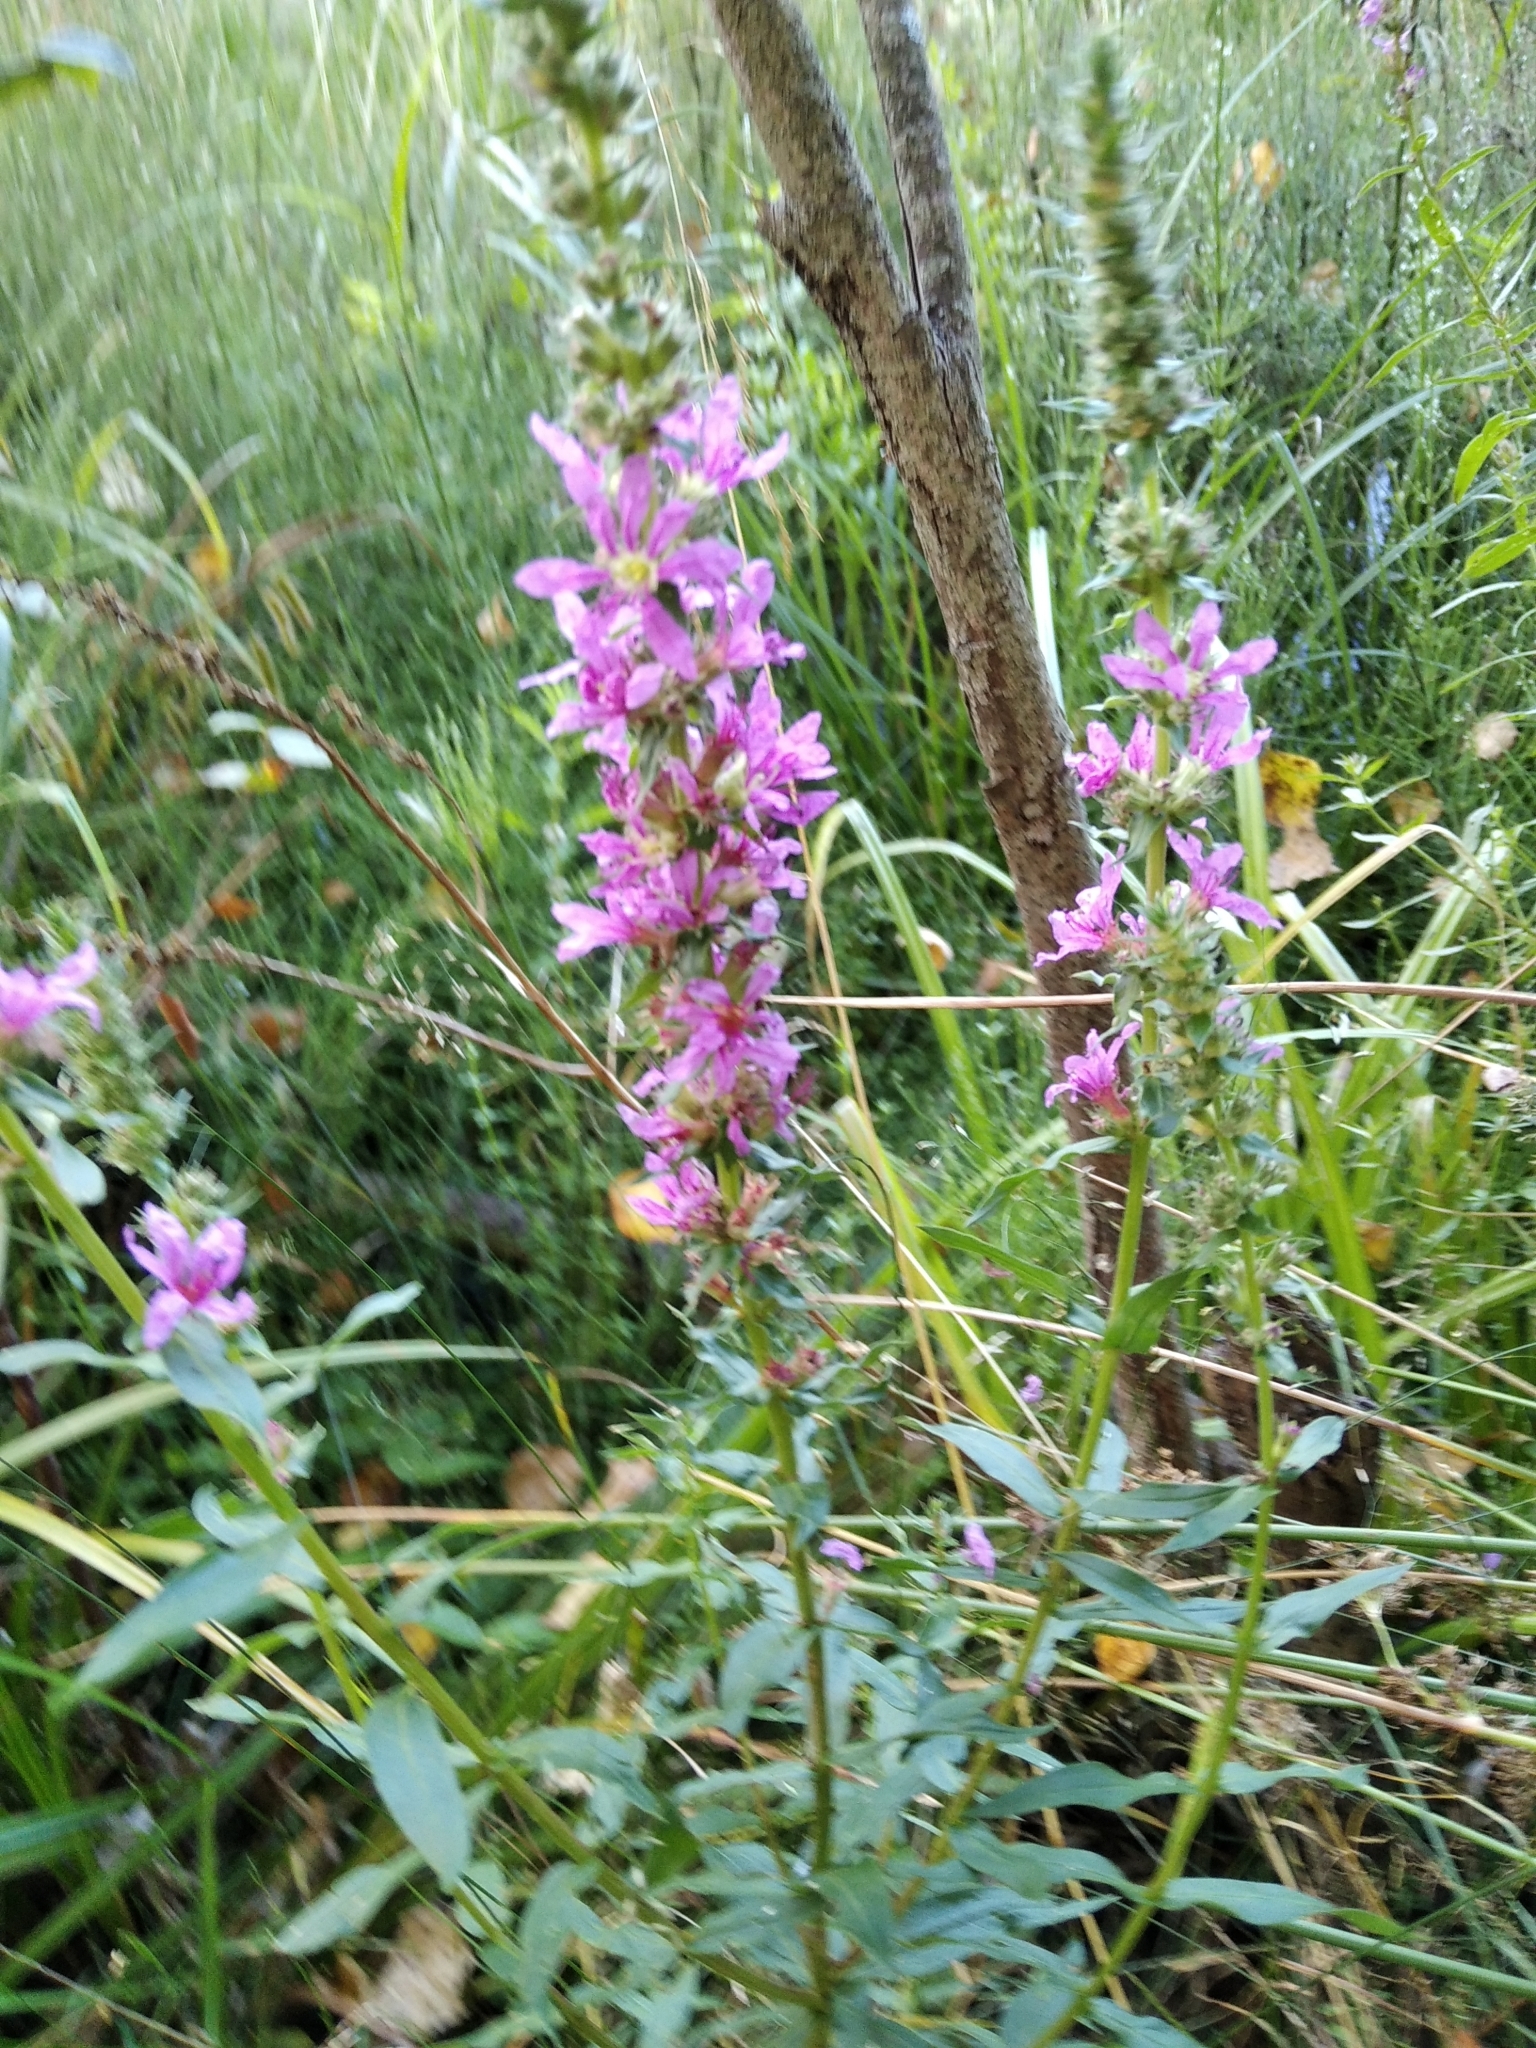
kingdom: Plantae
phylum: Tracheophyta
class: Magnoliopsida
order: Myrtales
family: Lythraceae
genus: Lythrum
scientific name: Lythrum salicaria
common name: Purple loosestrife
